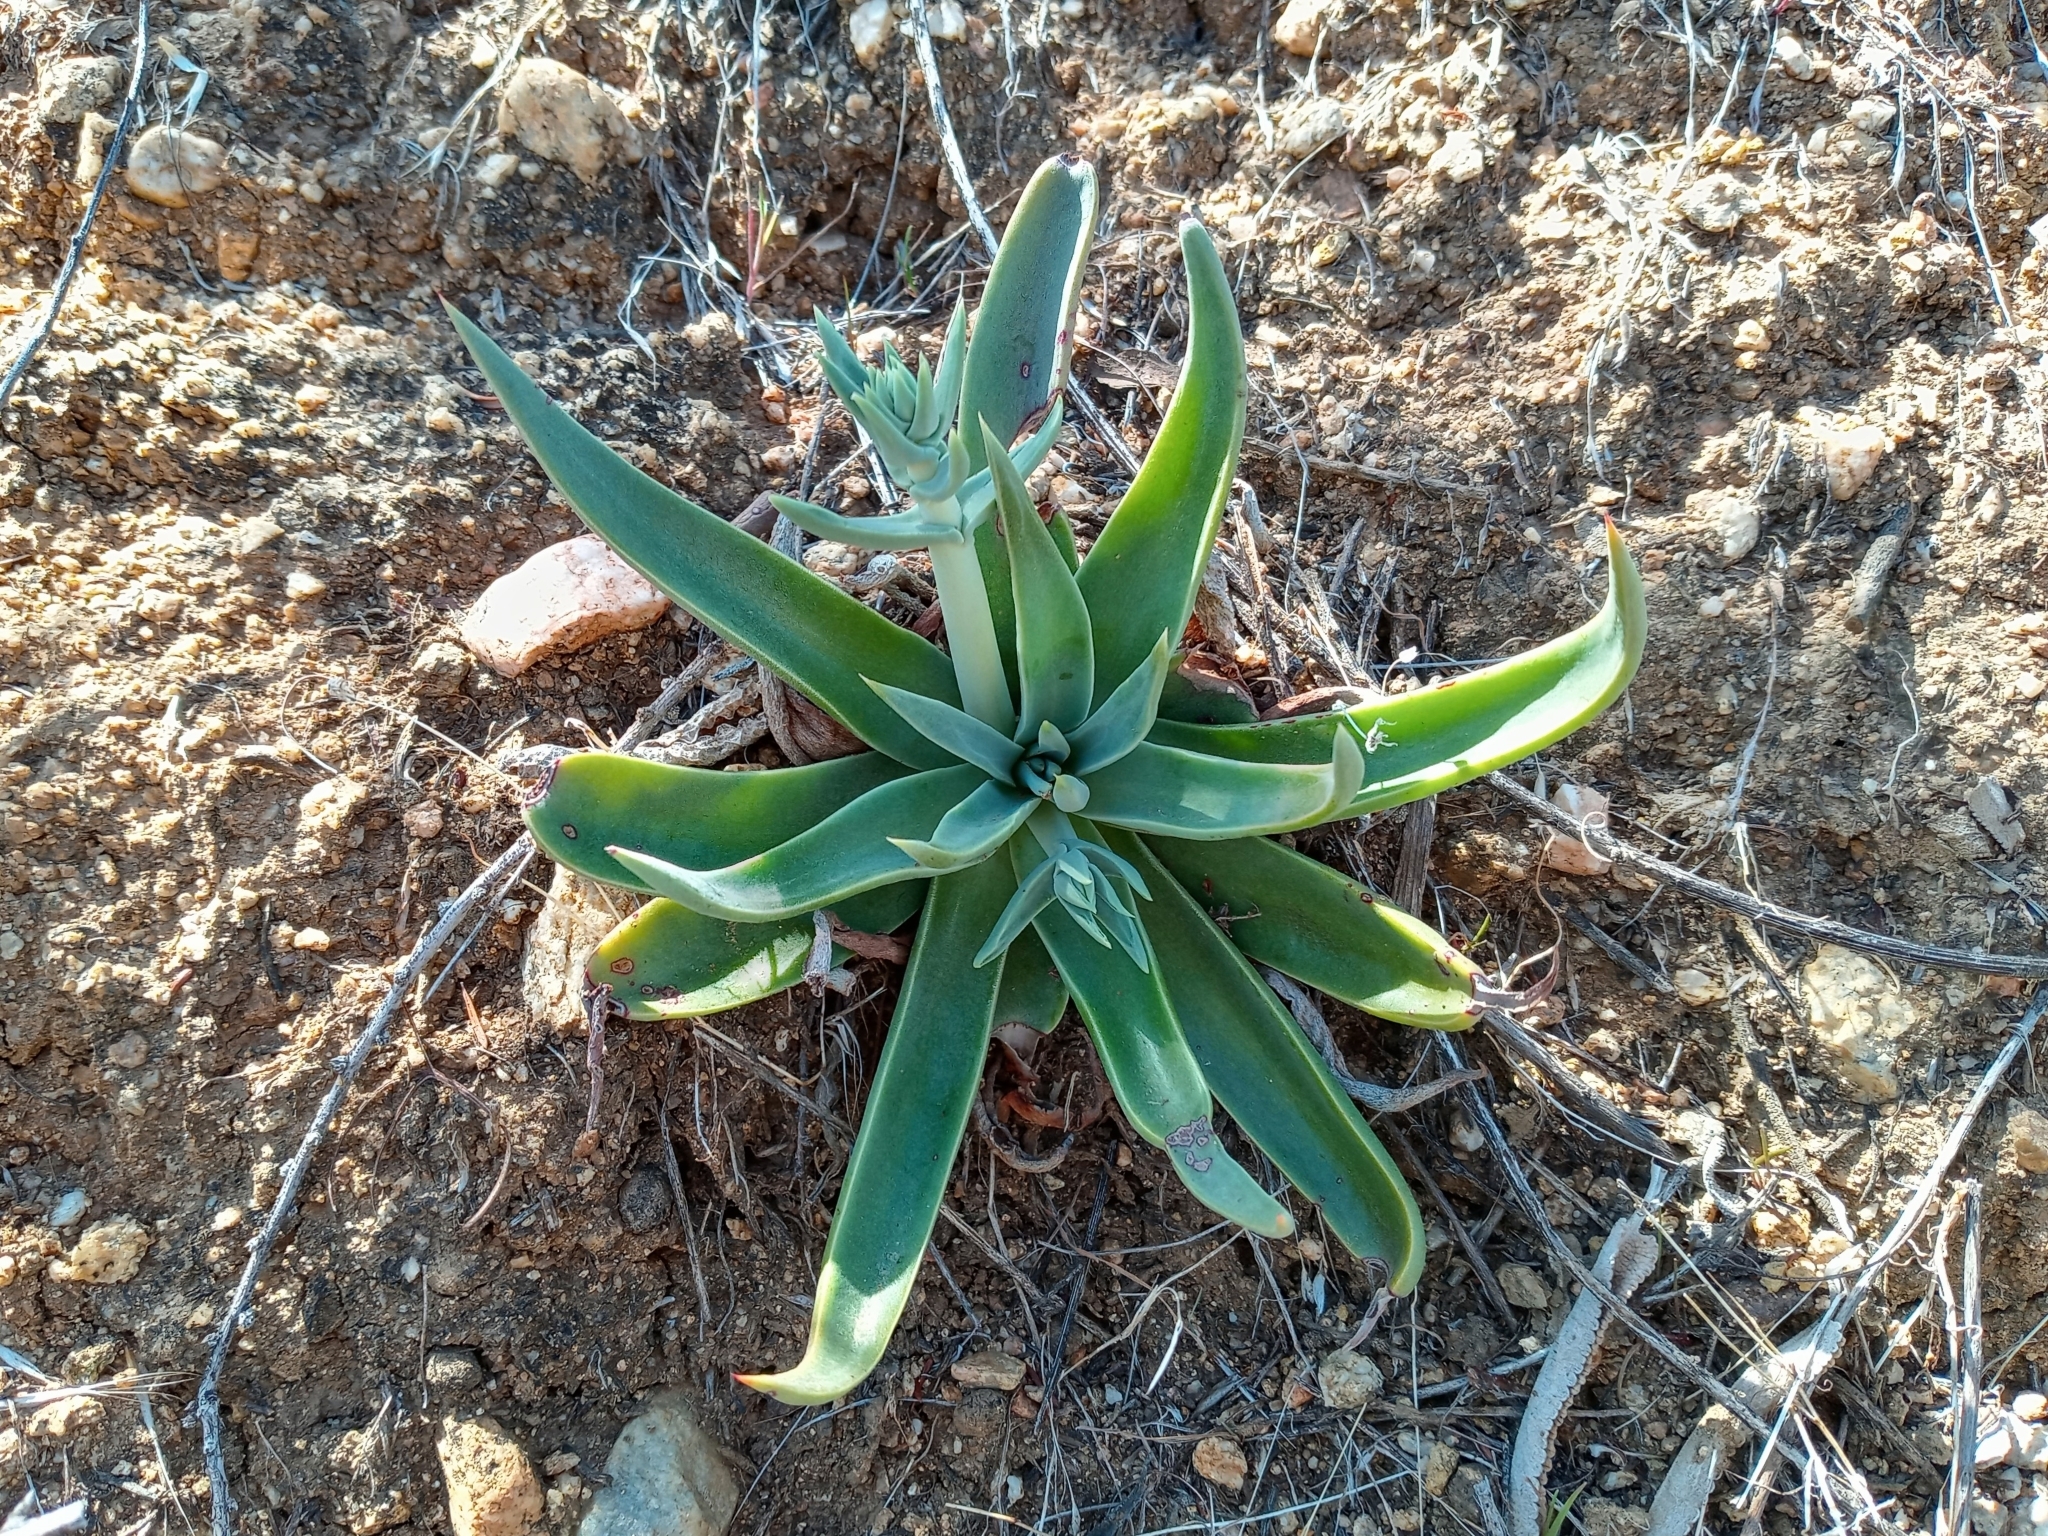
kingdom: Plantae
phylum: Tracheophyta
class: Magnoliopsida
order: Saxifragales
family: Crassulaceae
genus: Dudleya
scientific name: Dudleya lanceolata
